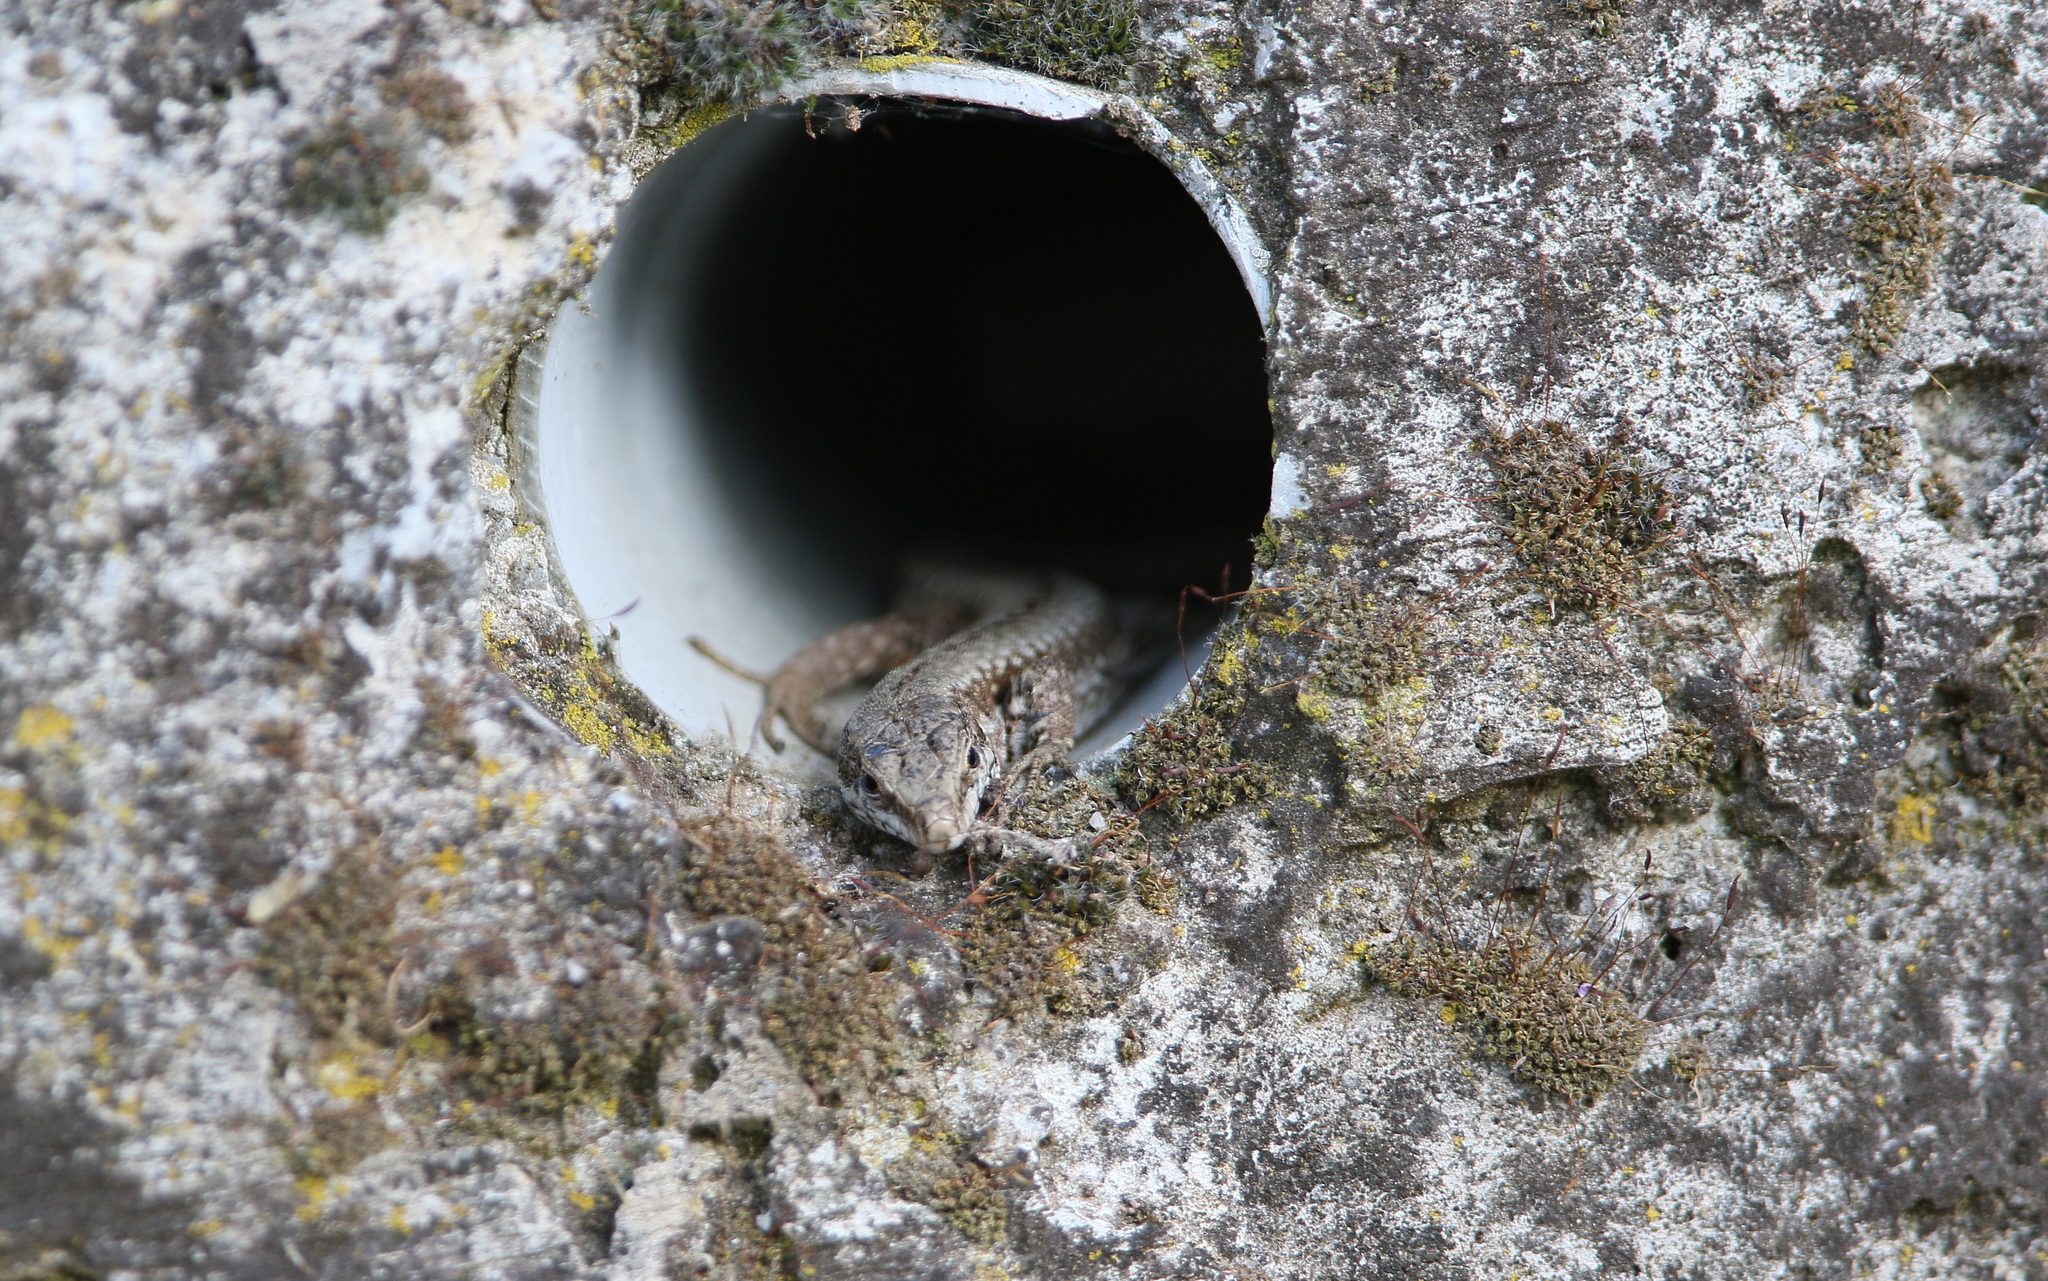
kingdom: Animalia
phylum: Chordata
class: Squamata
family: Lacertidae
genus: Podarcis
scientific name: Podarcis muralis
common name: Common wall lizard
